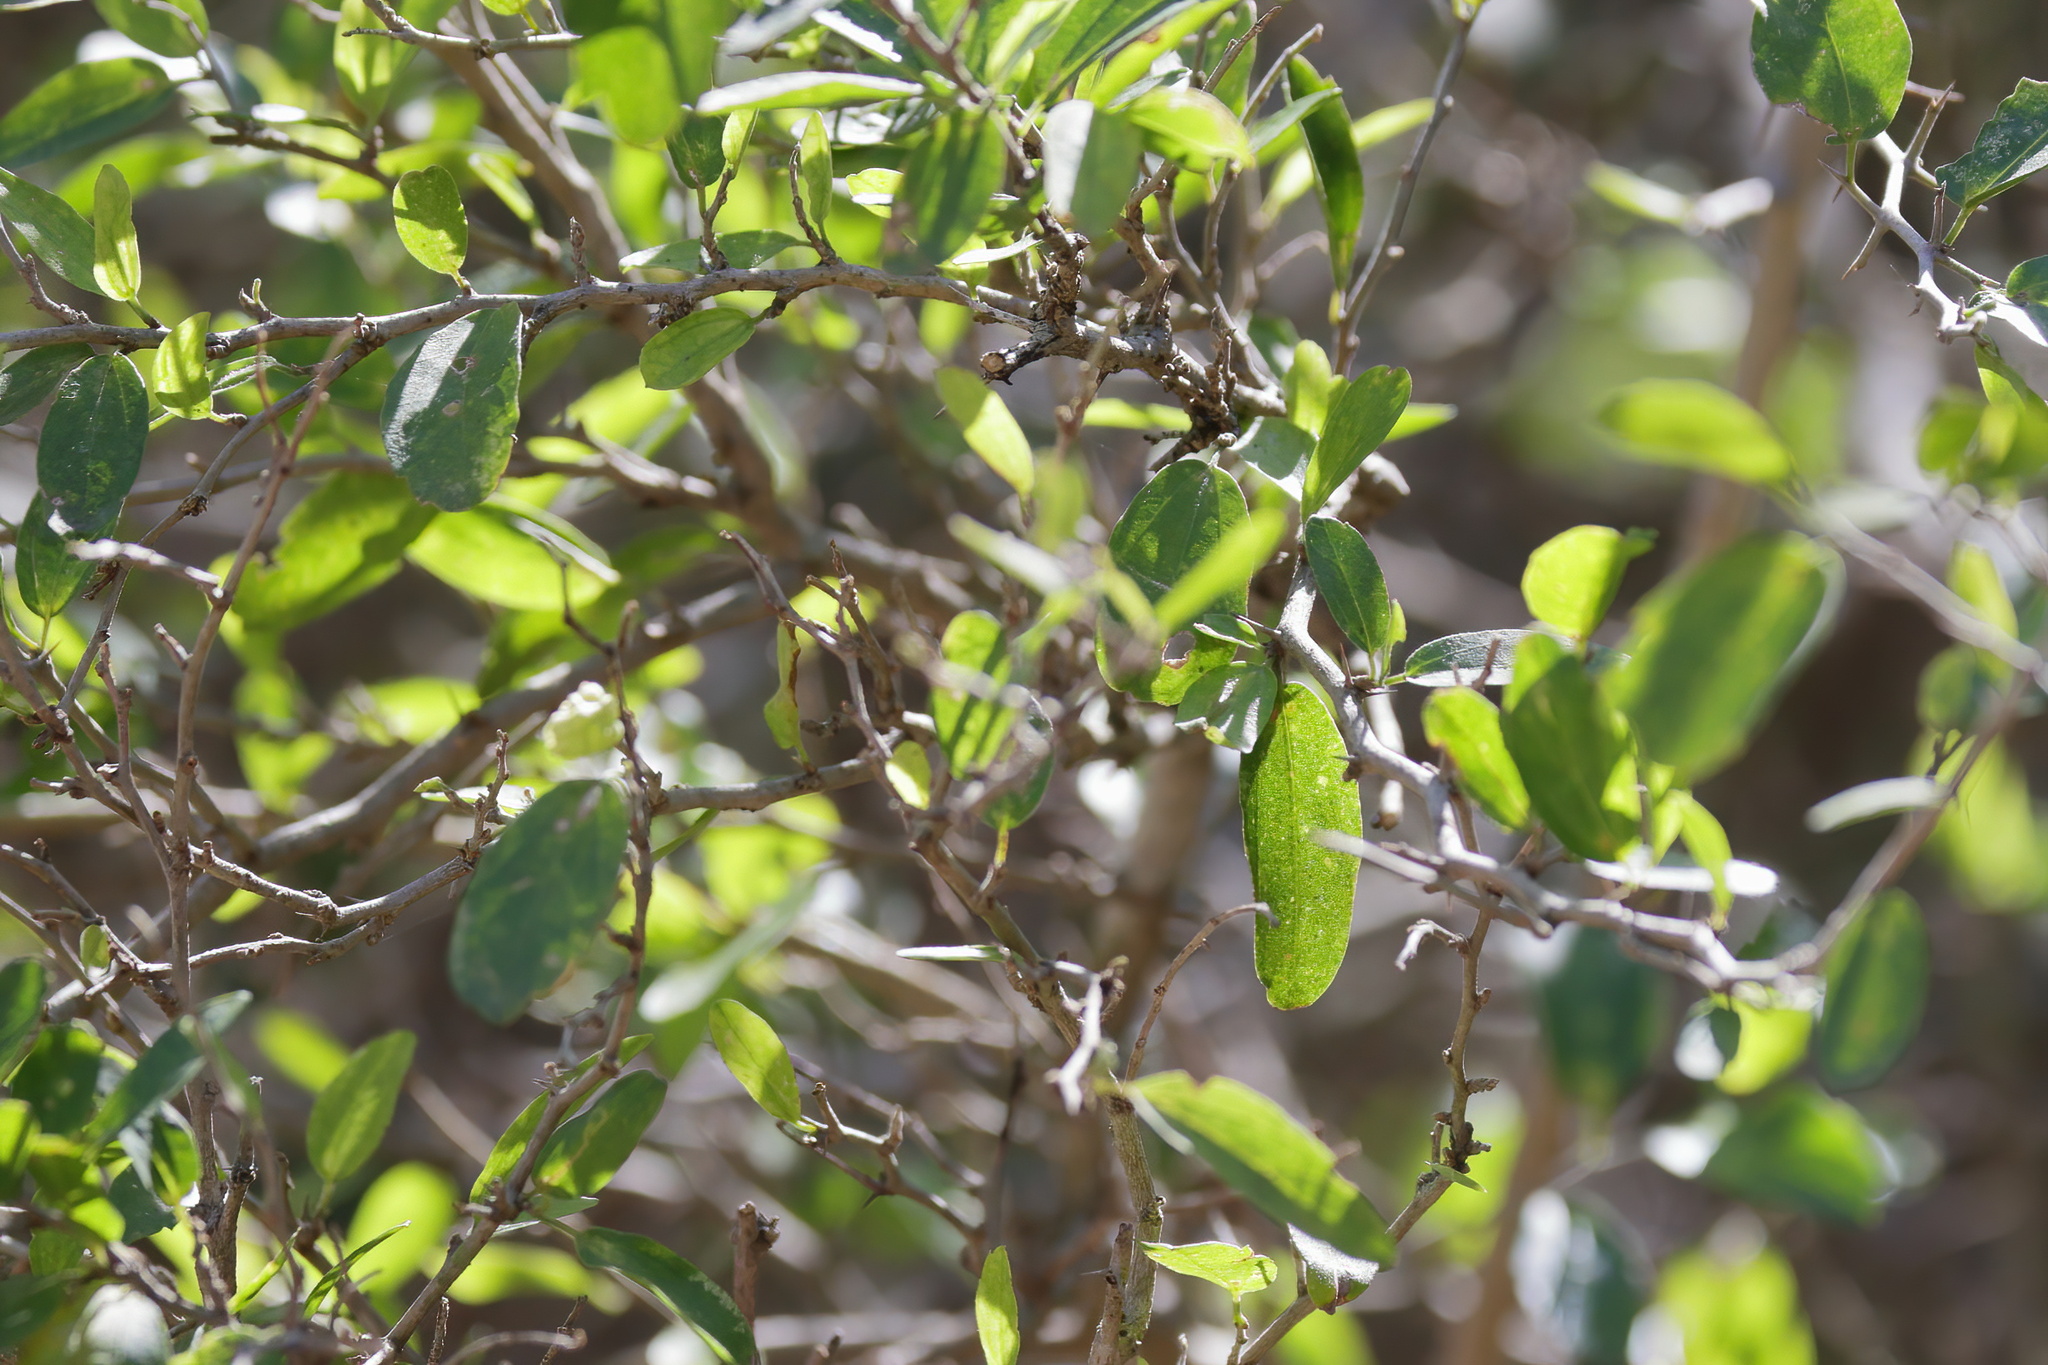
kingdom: Plantae
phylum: Tracheophyta
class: Magnoliopsida
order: Rosales
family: Cannabaceae
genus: Celtis
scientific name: Celtis pallida
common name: Desert hackberry
